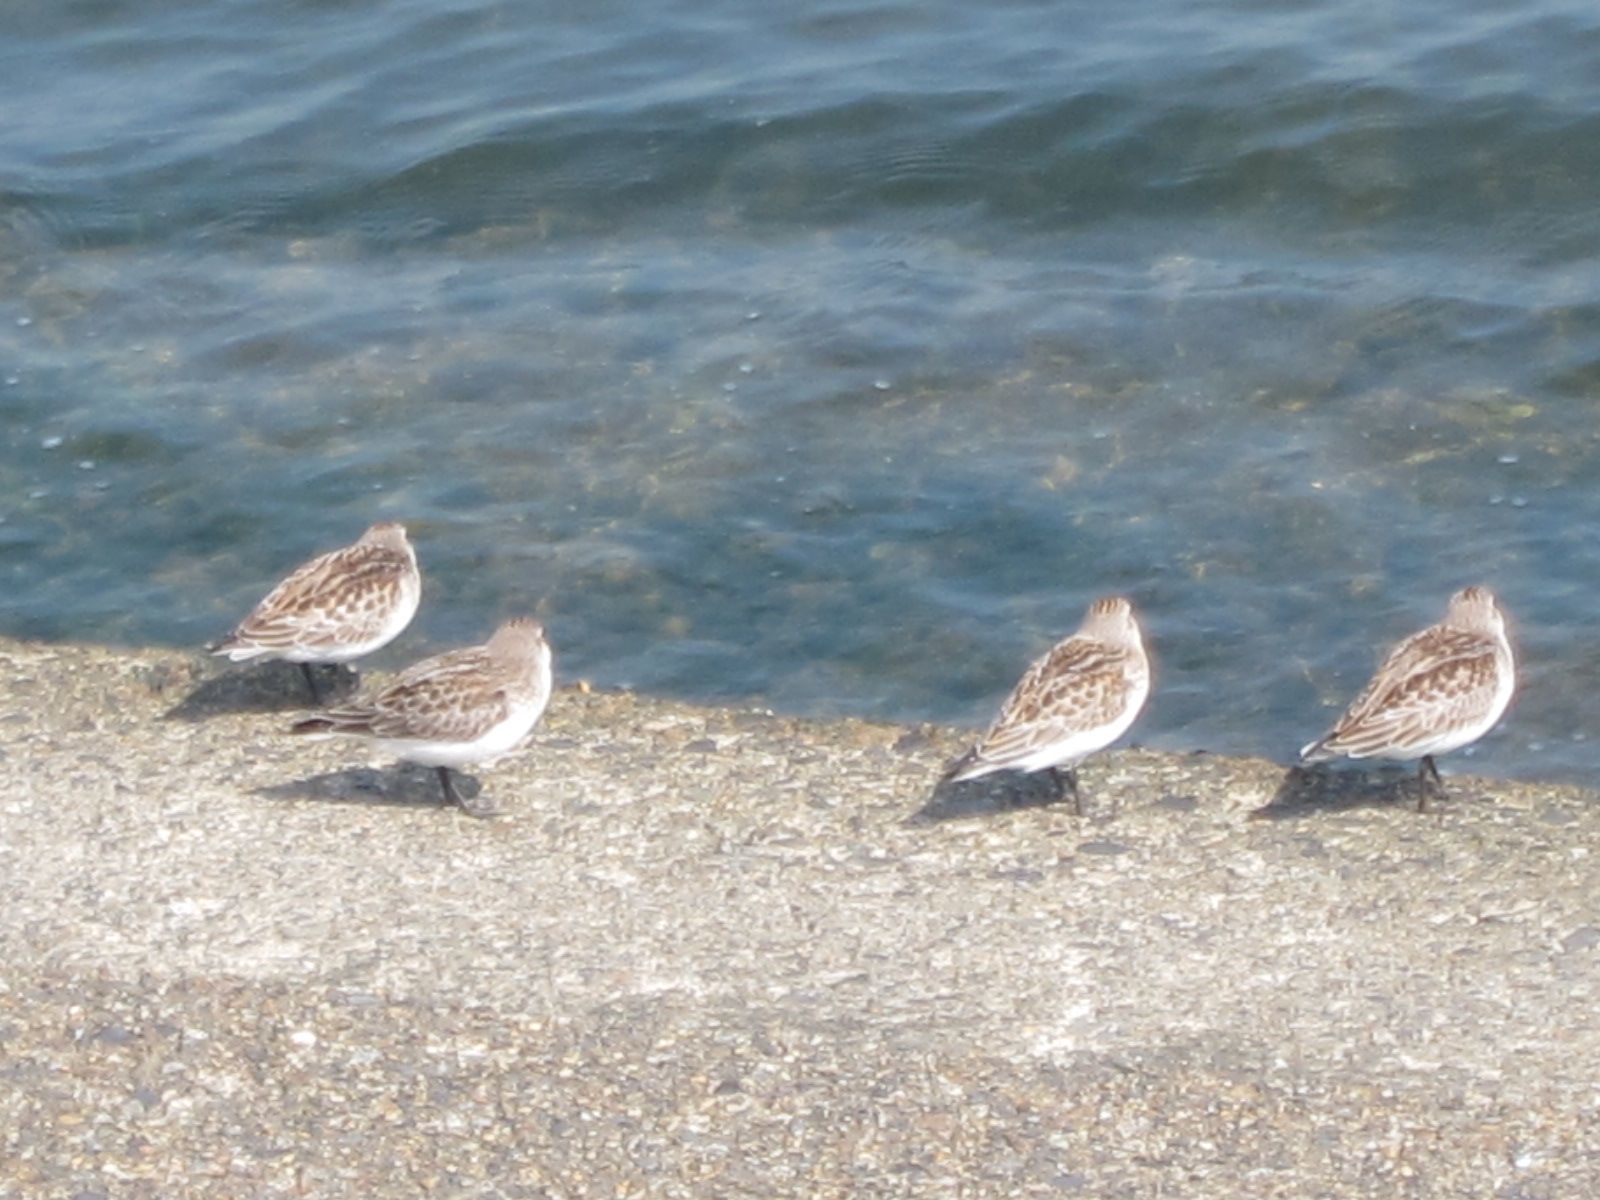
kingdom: Animalia
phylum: Chordata
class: Aves
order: Charadriiformes
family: Scolopacidae
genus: Calidris
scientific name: Calidris alba
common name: Sanderling
